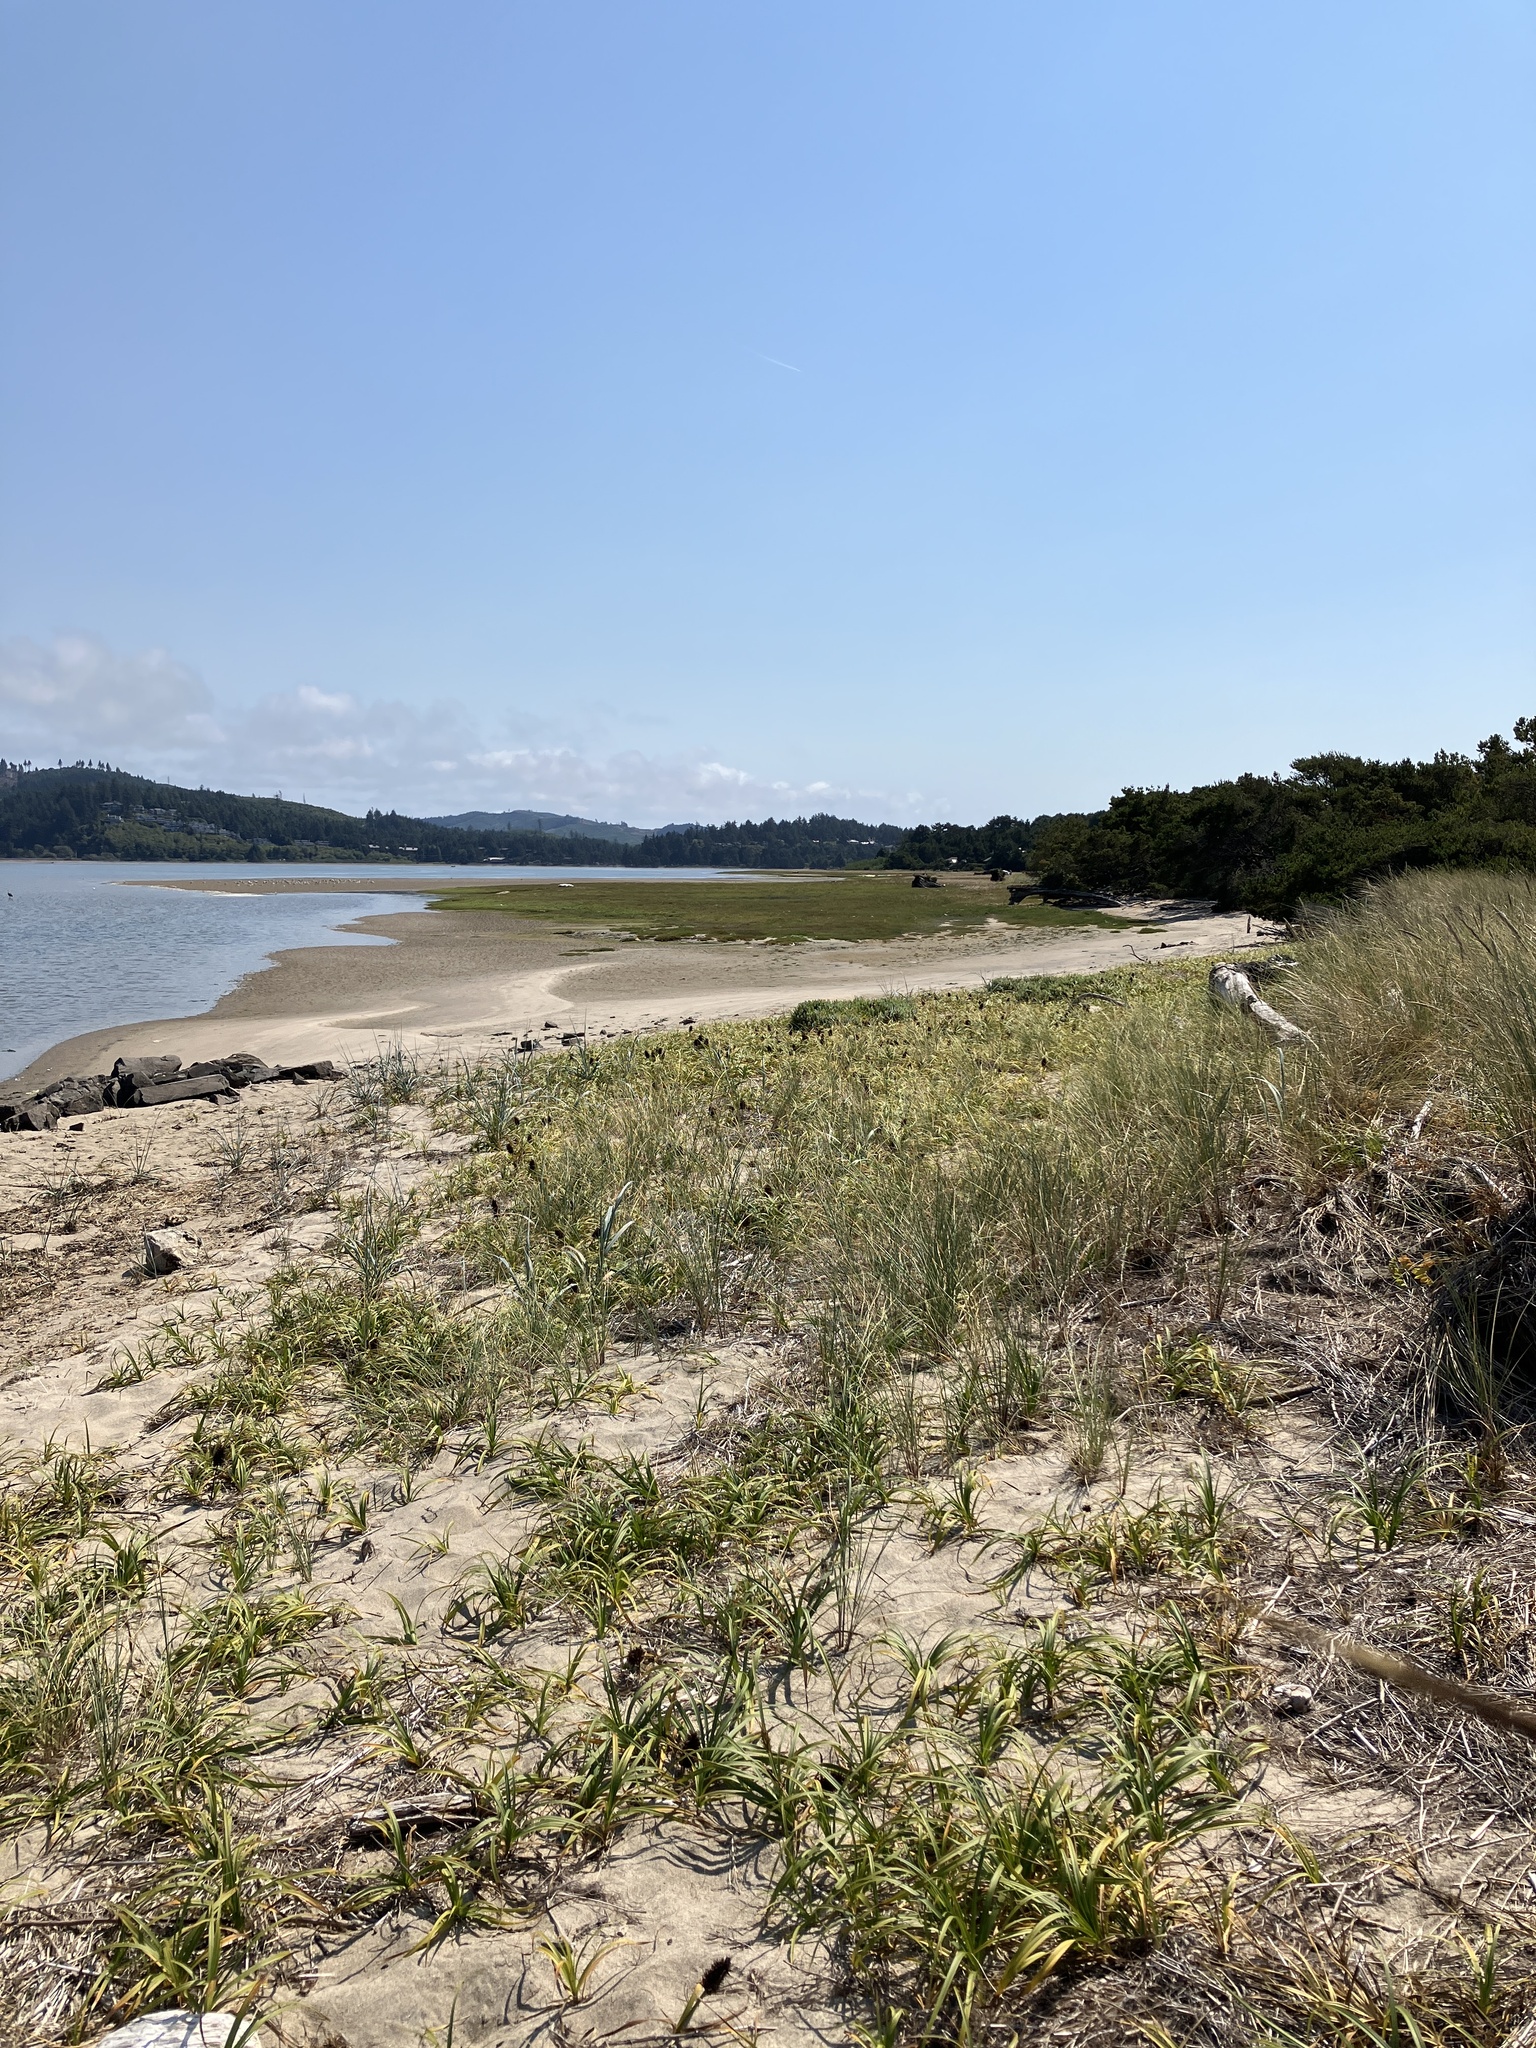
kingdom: Plantae
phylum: Tracheophyta
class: Liliopsida
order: Poales
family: Cyperaceae
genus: Carex
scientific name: Carex macrocephala
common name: Large-head sedge
